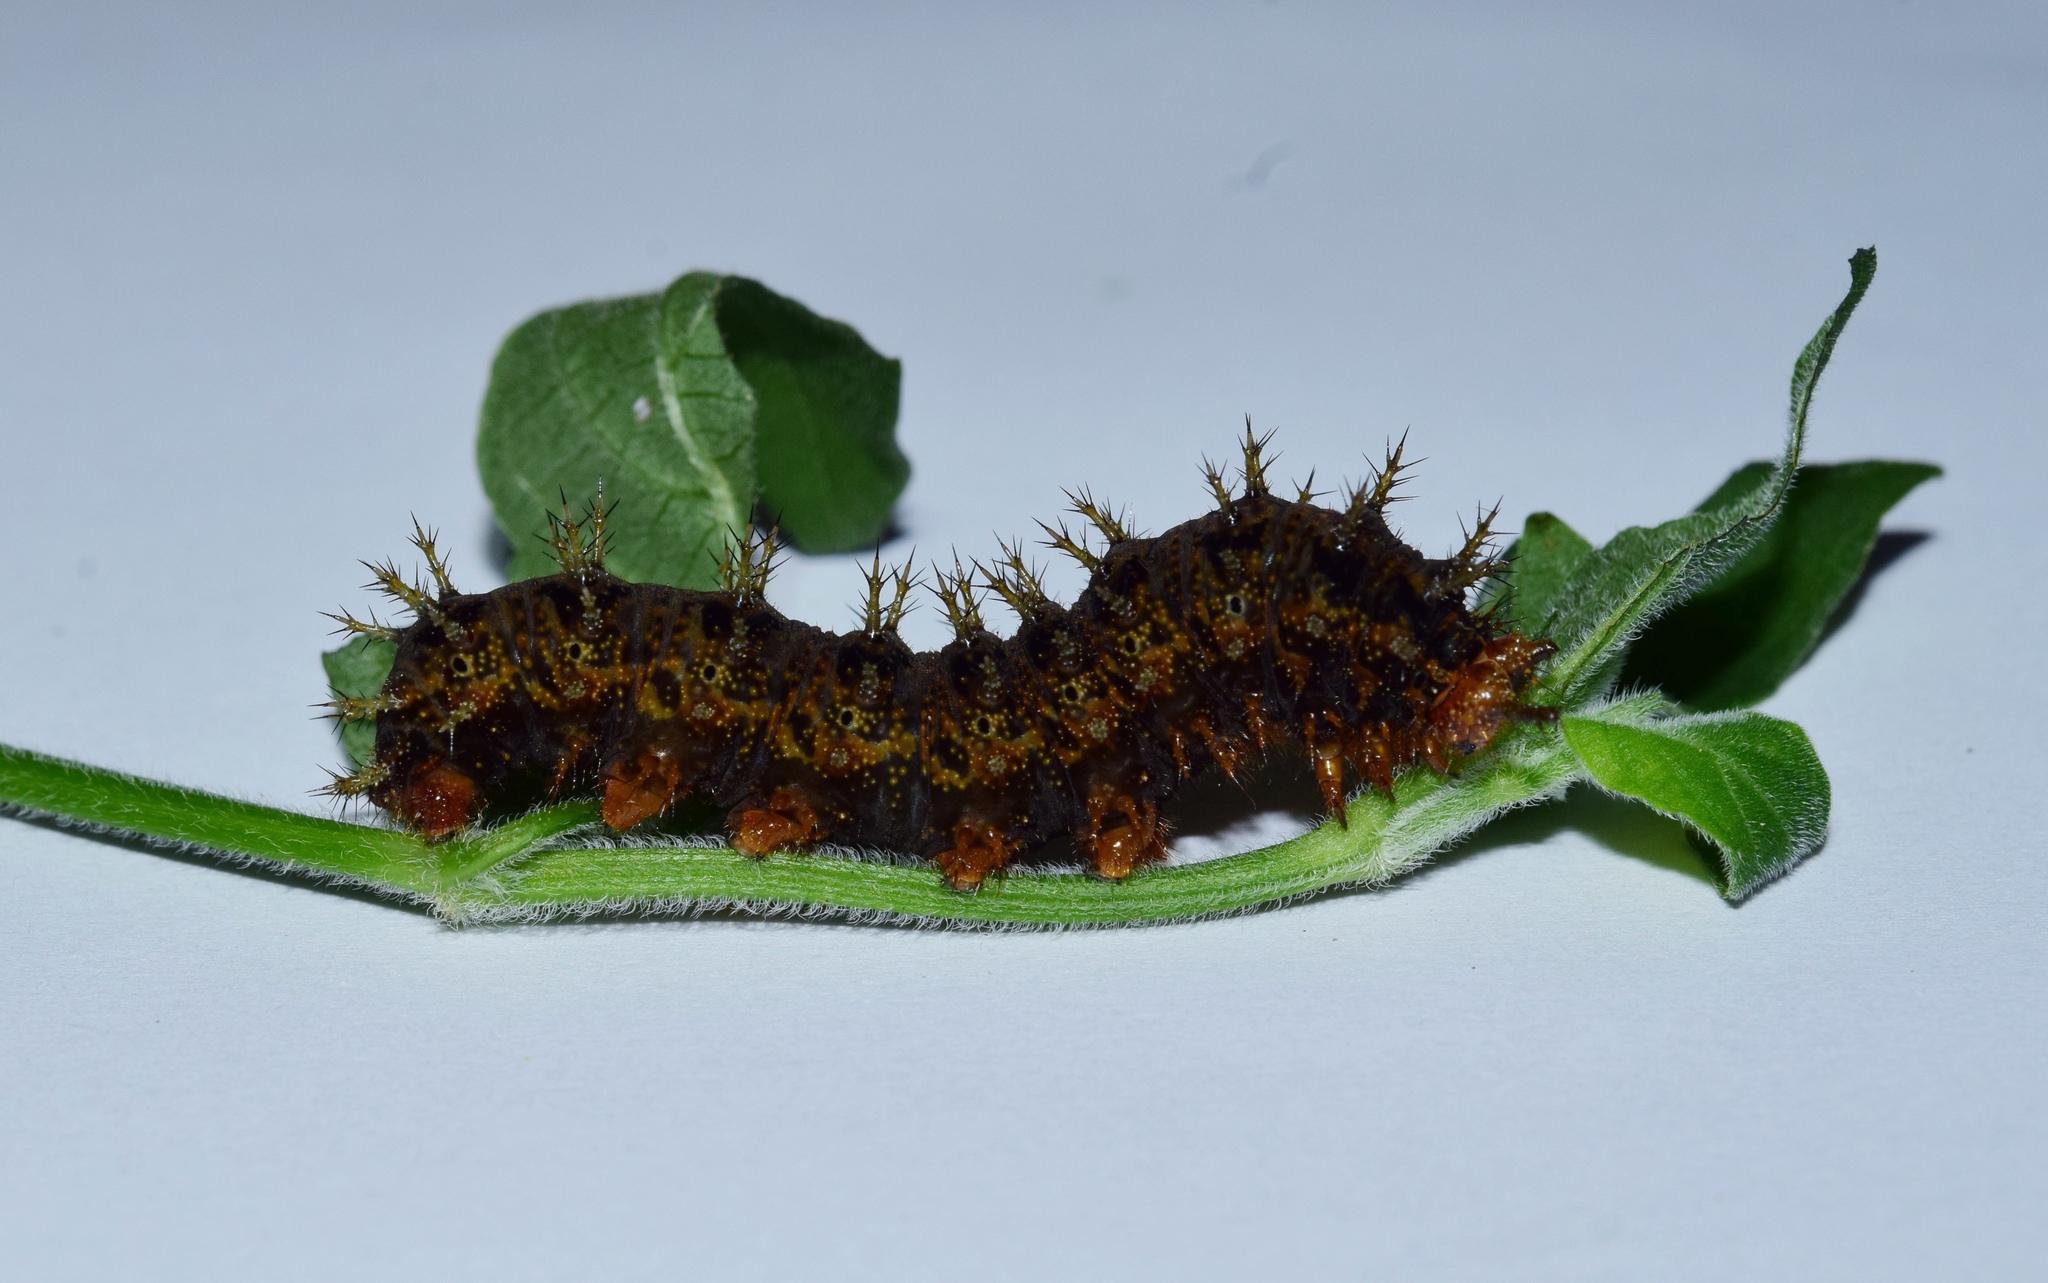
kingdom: Animalia
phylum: Arthropoda
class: Insecta
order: Lepidoptera
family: Nymphalidae
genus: Hypolimnas
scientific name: Hypolimnas misippus
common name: False plain tiger
